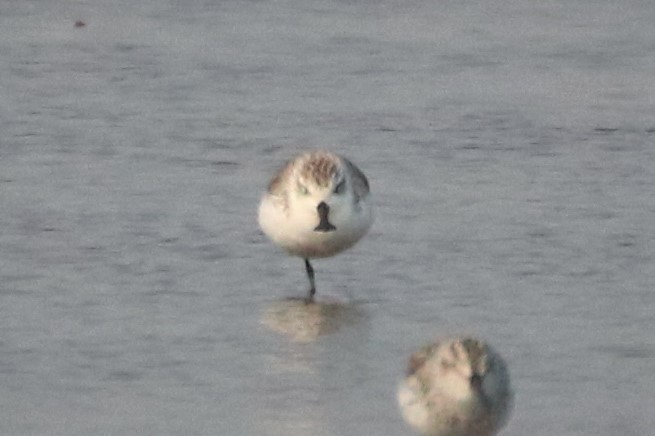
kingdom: Animalia
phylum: Chordata
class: Aves
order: Charadriiformes
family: Scolopacidae
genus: Calidris
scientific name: Calidris pygmaea
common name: Spoon-billed sandpiper
